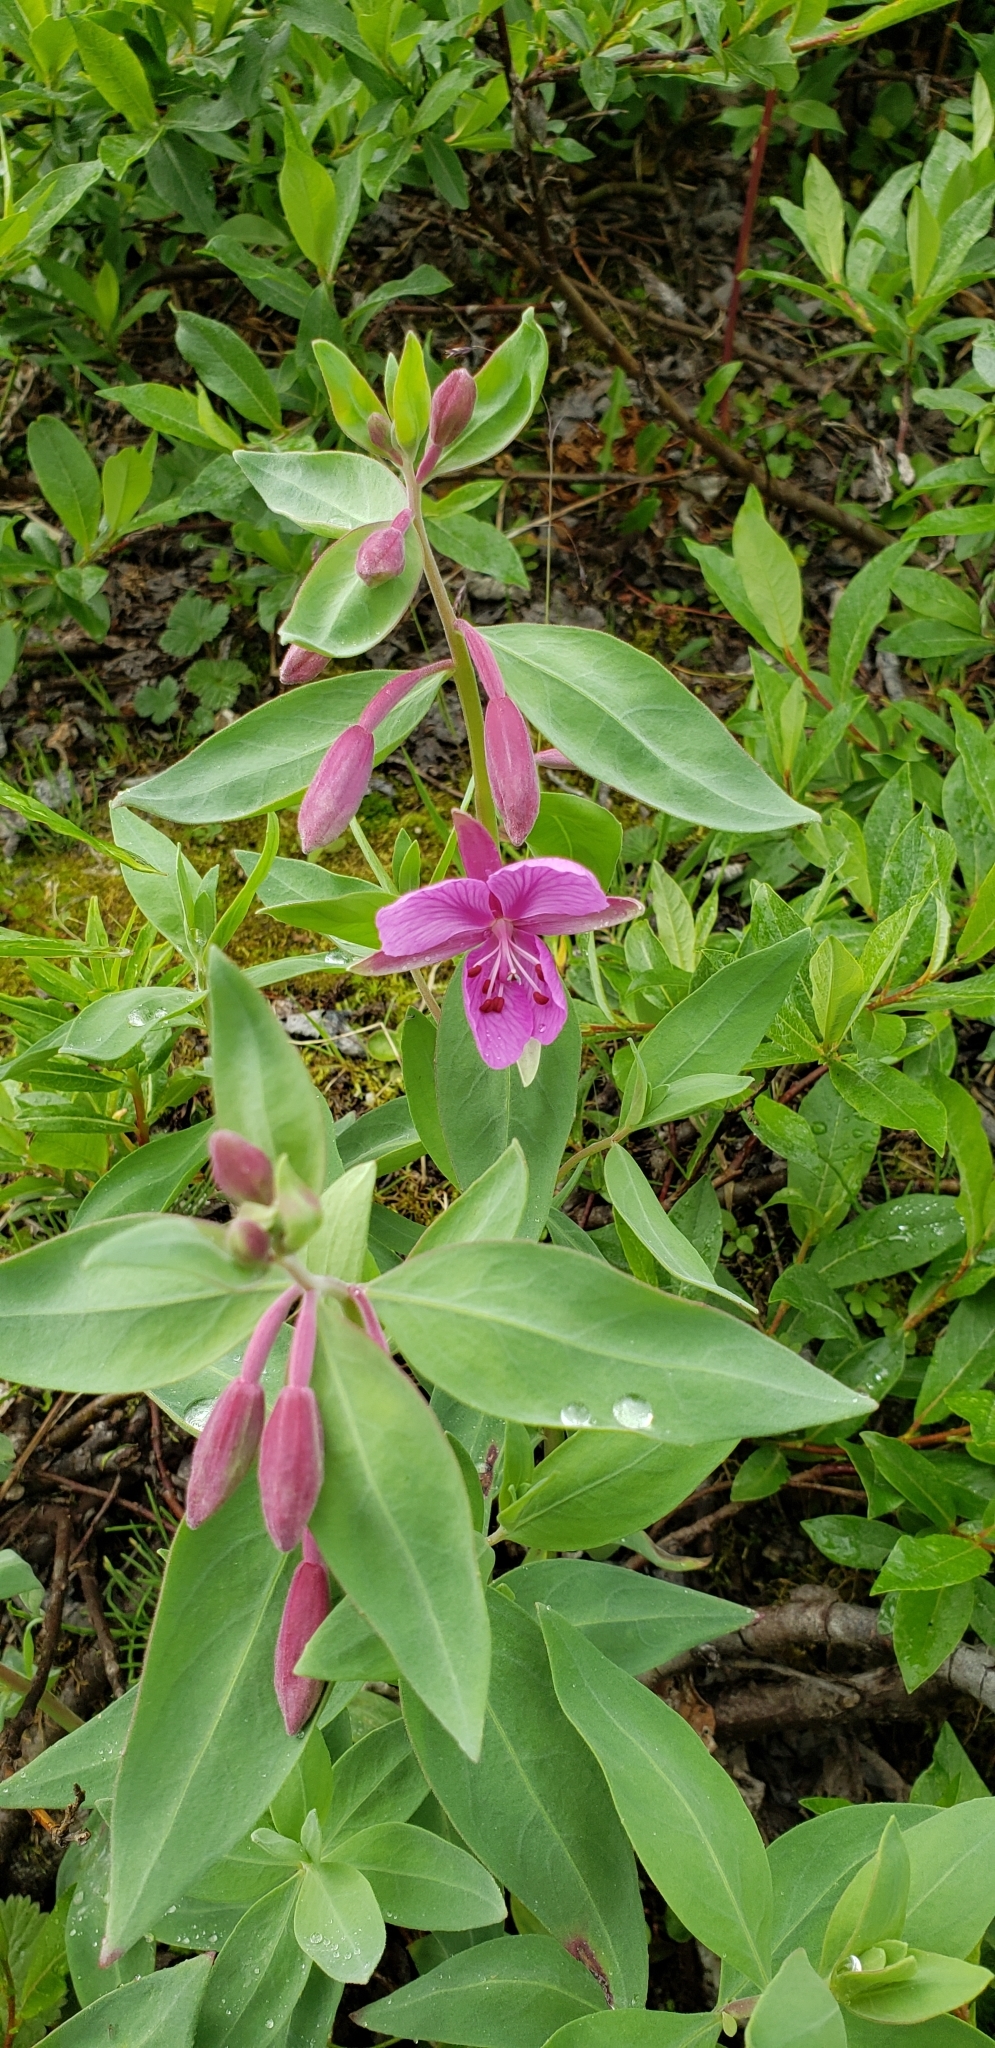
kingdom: Plantae
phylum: Tracheophyta
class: Magnoliopsida
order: Myrtales
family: Onagraceae
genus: Chamaenerion
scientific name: Chamaenerion latifolium
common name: Dwarf fireweed
